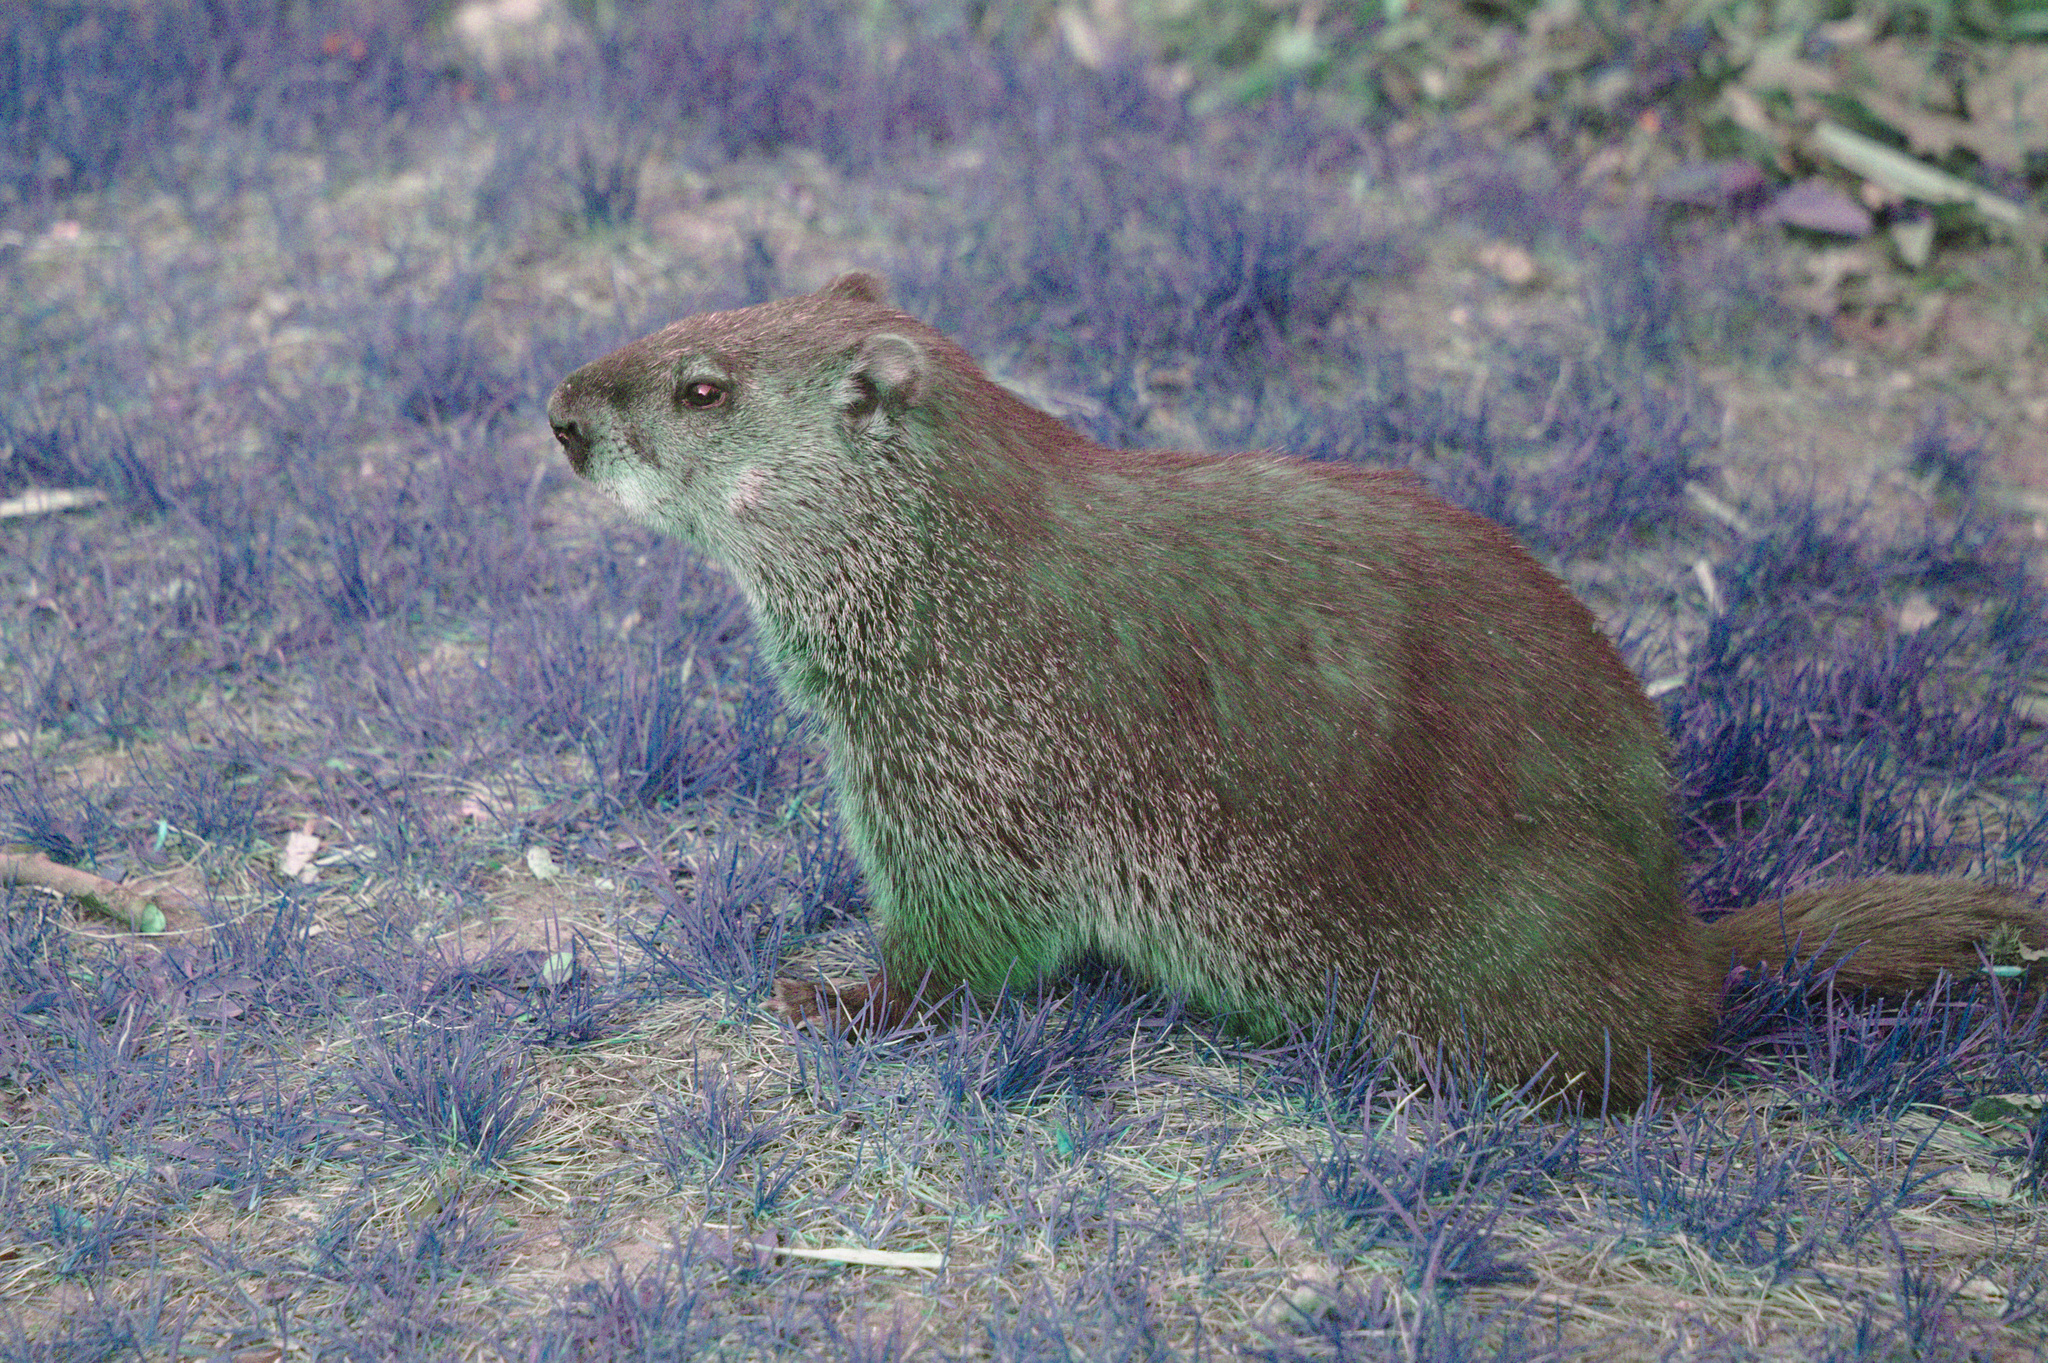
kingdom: Animalia
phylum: Chordata
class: Mammalia
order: Rodentia
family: Sciuridae
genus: Marmota
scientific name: Marmota monax
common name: Groundhog
